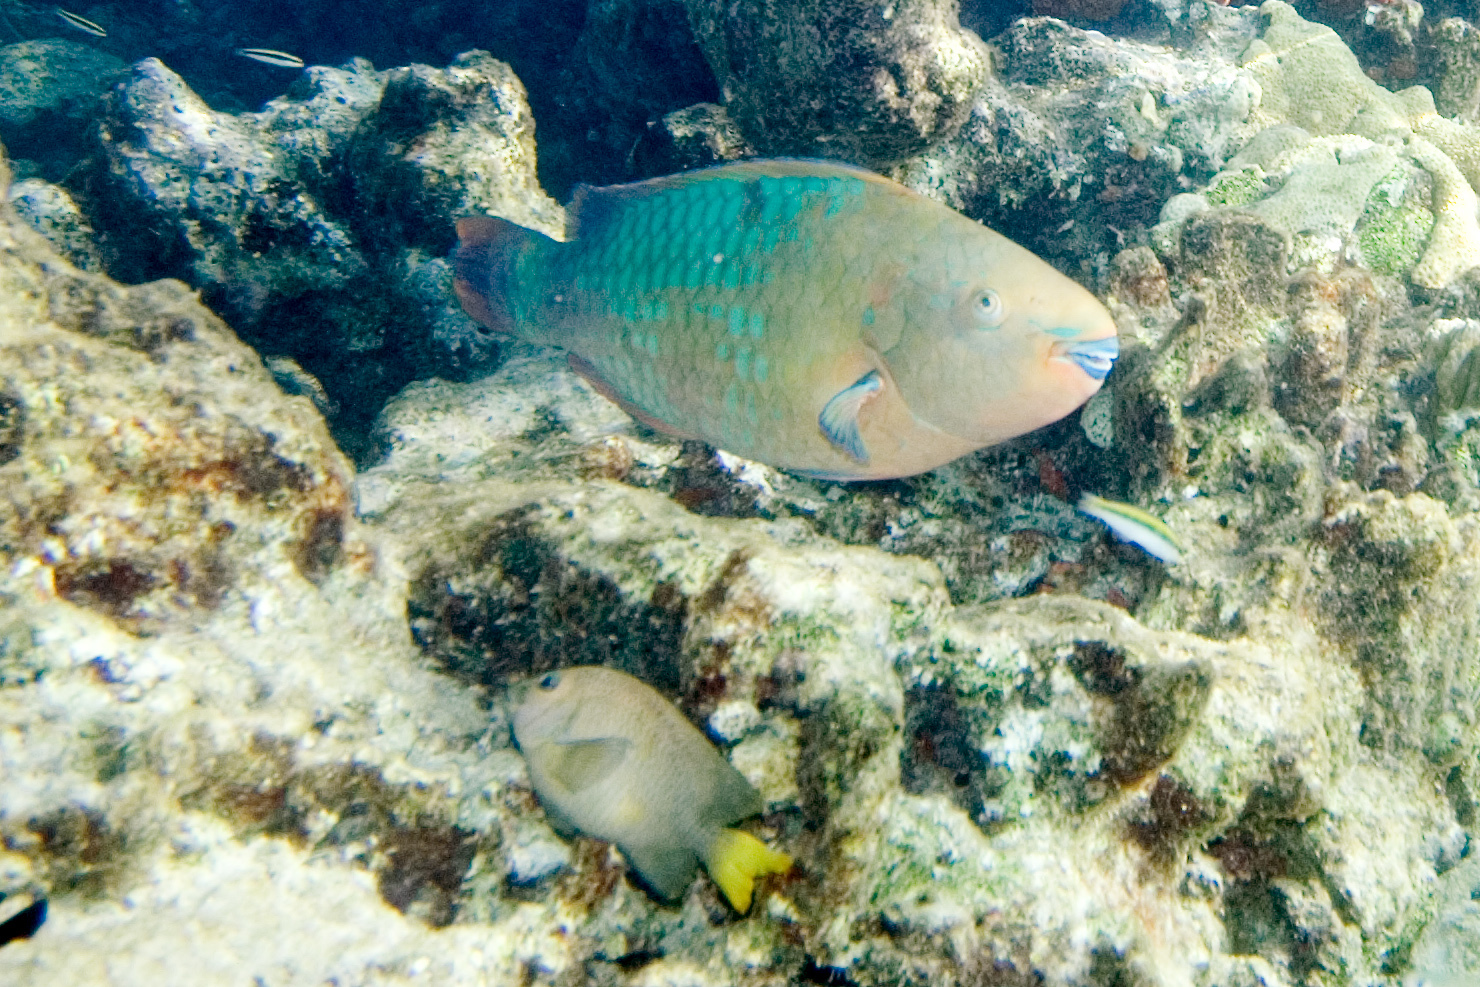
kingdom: Animalia
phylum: Chordata
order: Perciformes
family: Scaridae
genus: Scarus
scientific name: Scarus guacamaia
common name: Rainbow parrotfish
